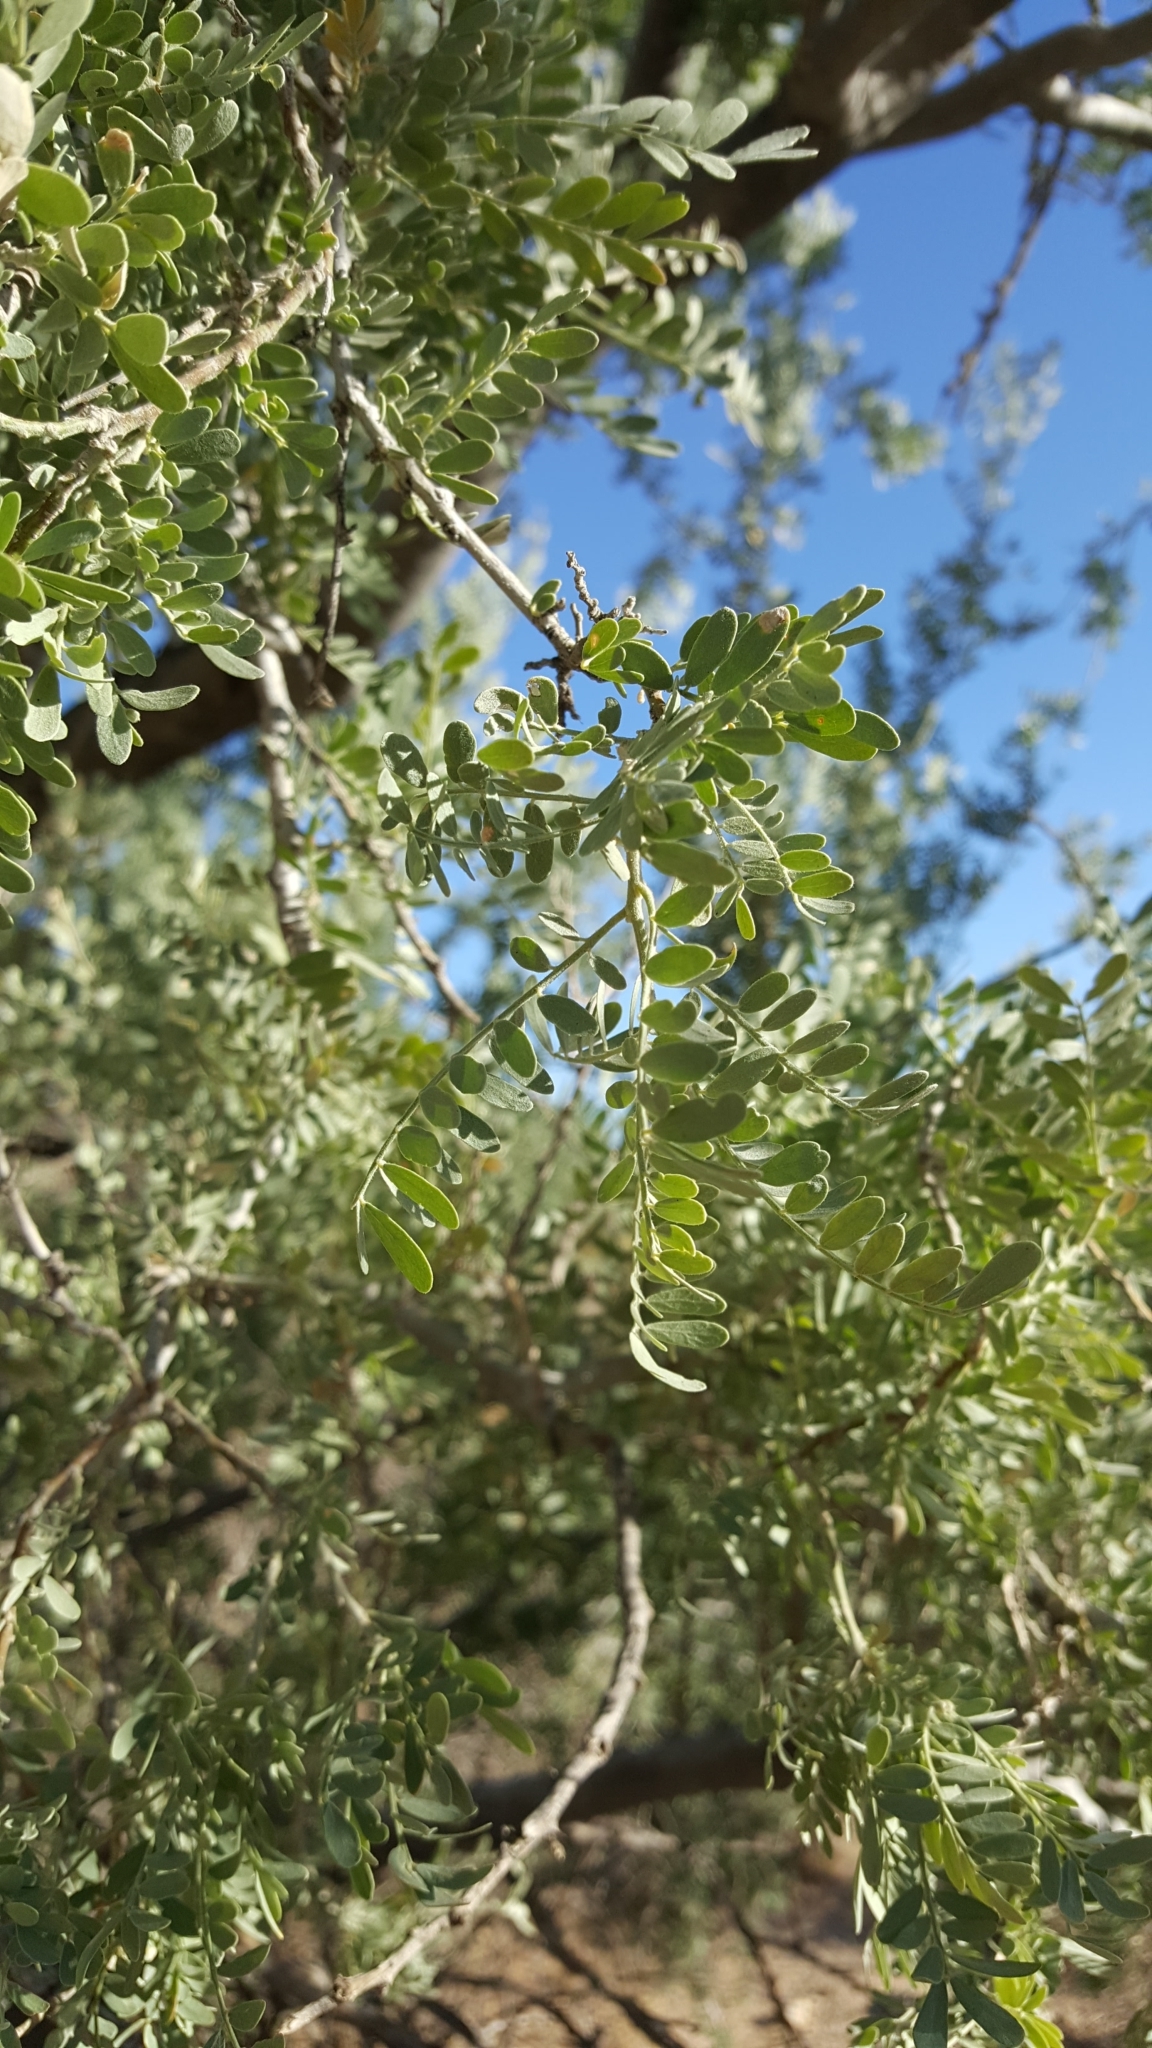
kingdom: Plantae
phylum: Tracheophyta
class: Magnoliopsida
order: Fabales
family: Fabaceae
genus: Olneya
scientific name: Olneya tesota
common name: Desert ironwood
